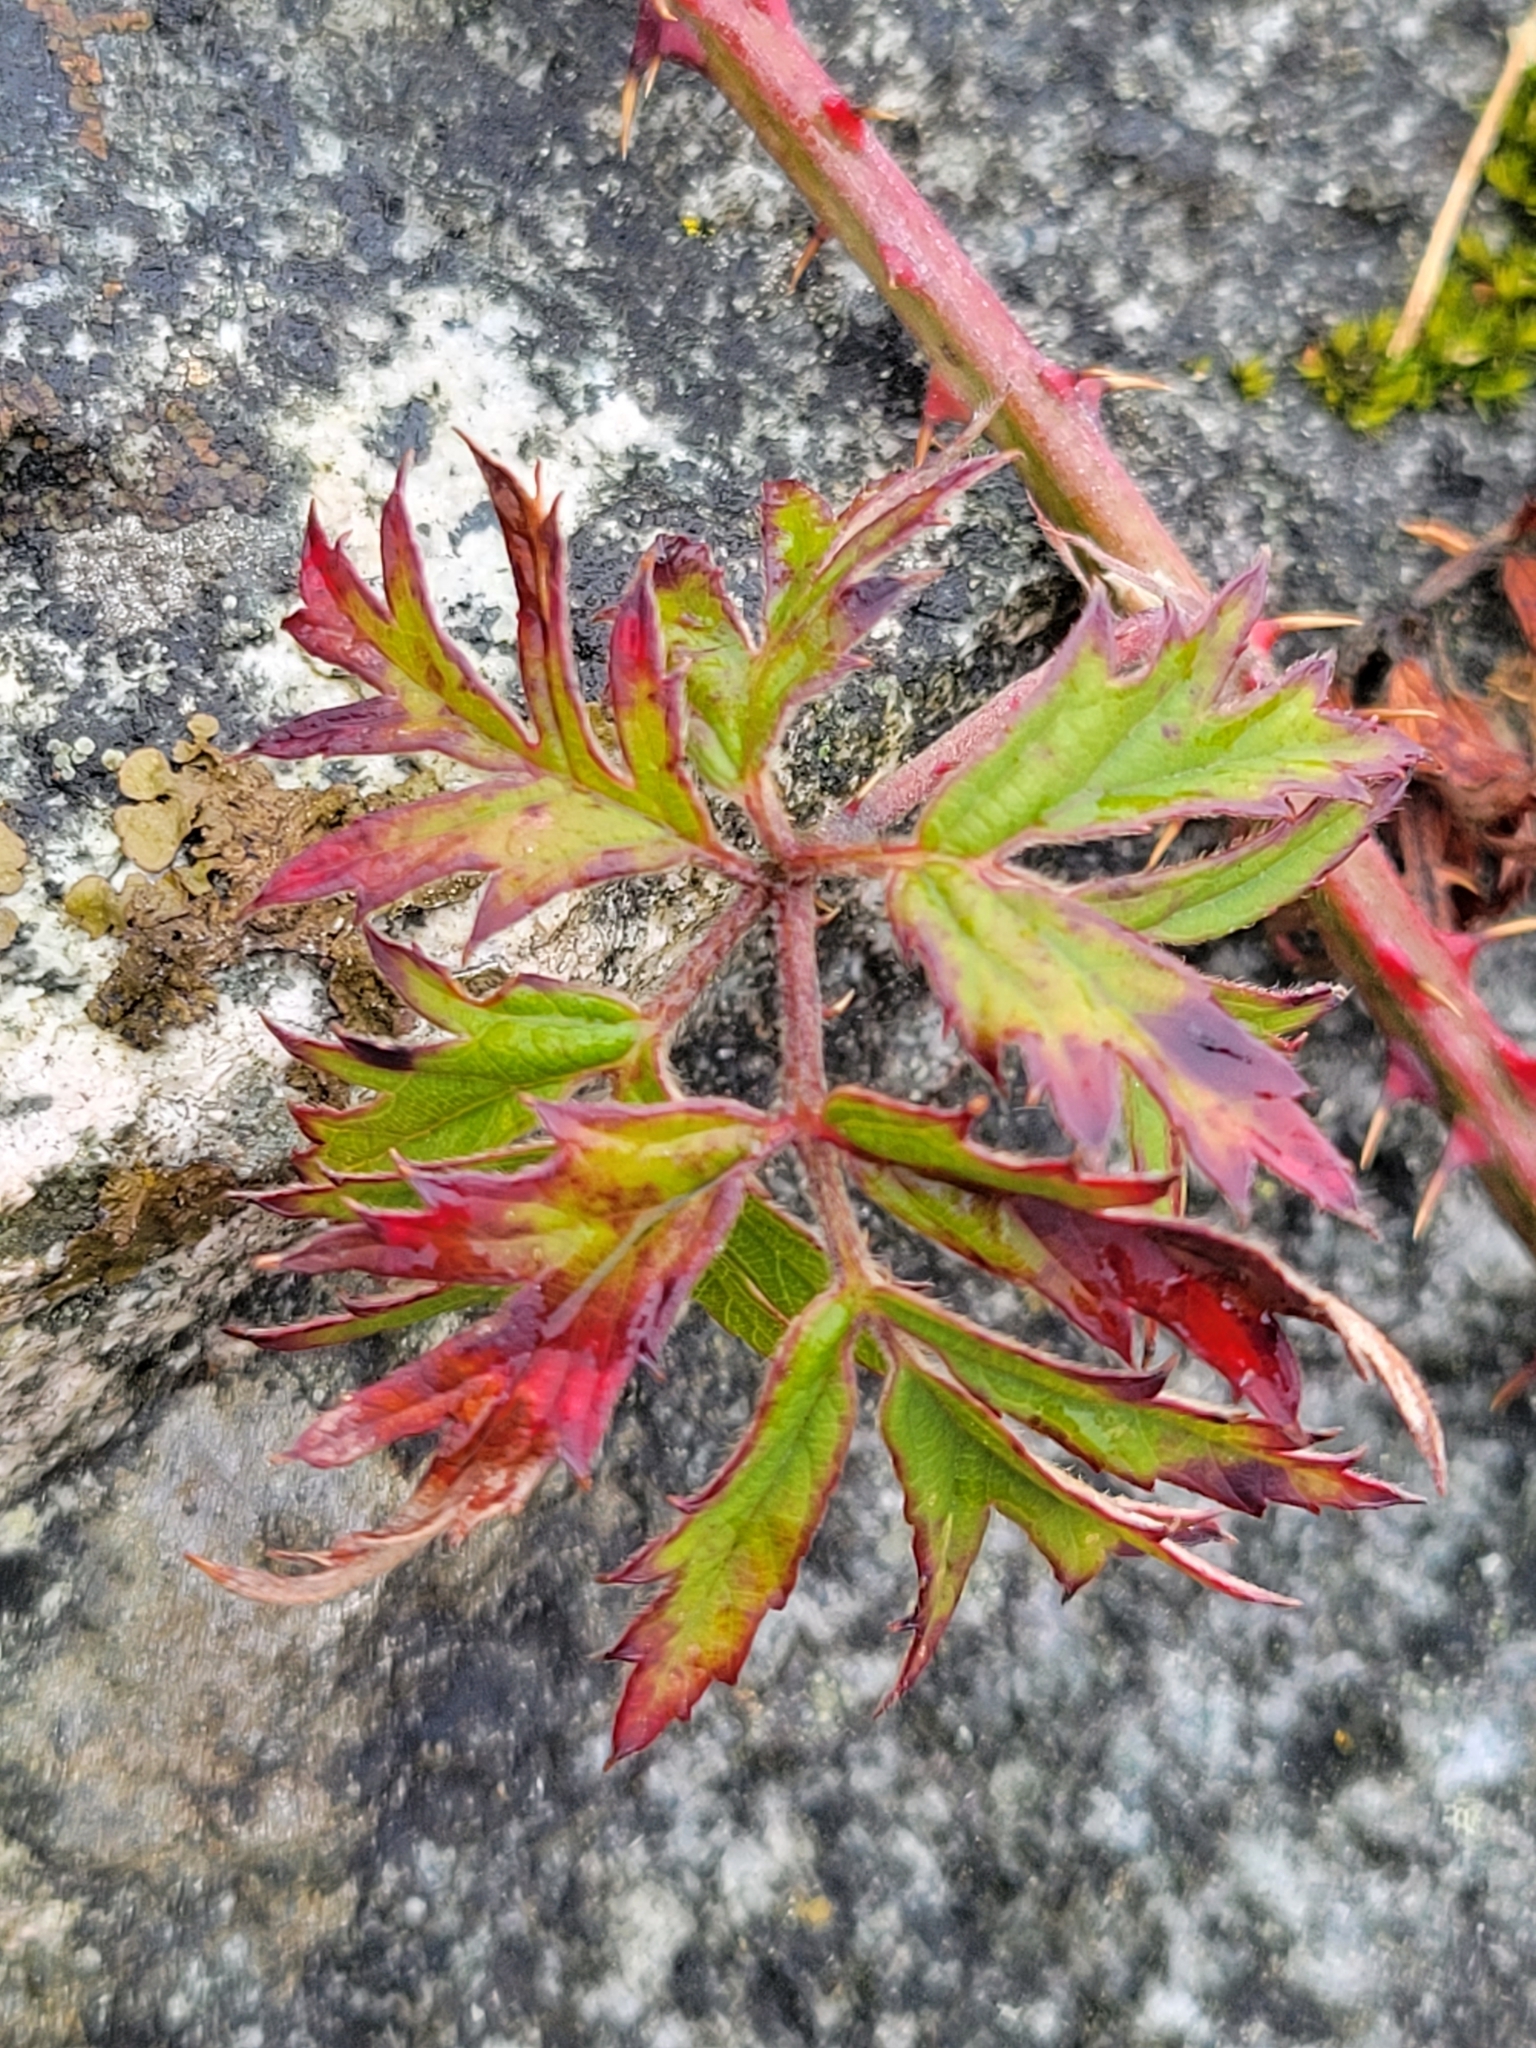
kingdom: Plantae
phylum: Tracheophyta
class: Magnoliopsida
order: Rosales
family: Rosaceae
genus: Rubus
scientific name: Rubus laciniatus
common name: Evergreen blackberry
